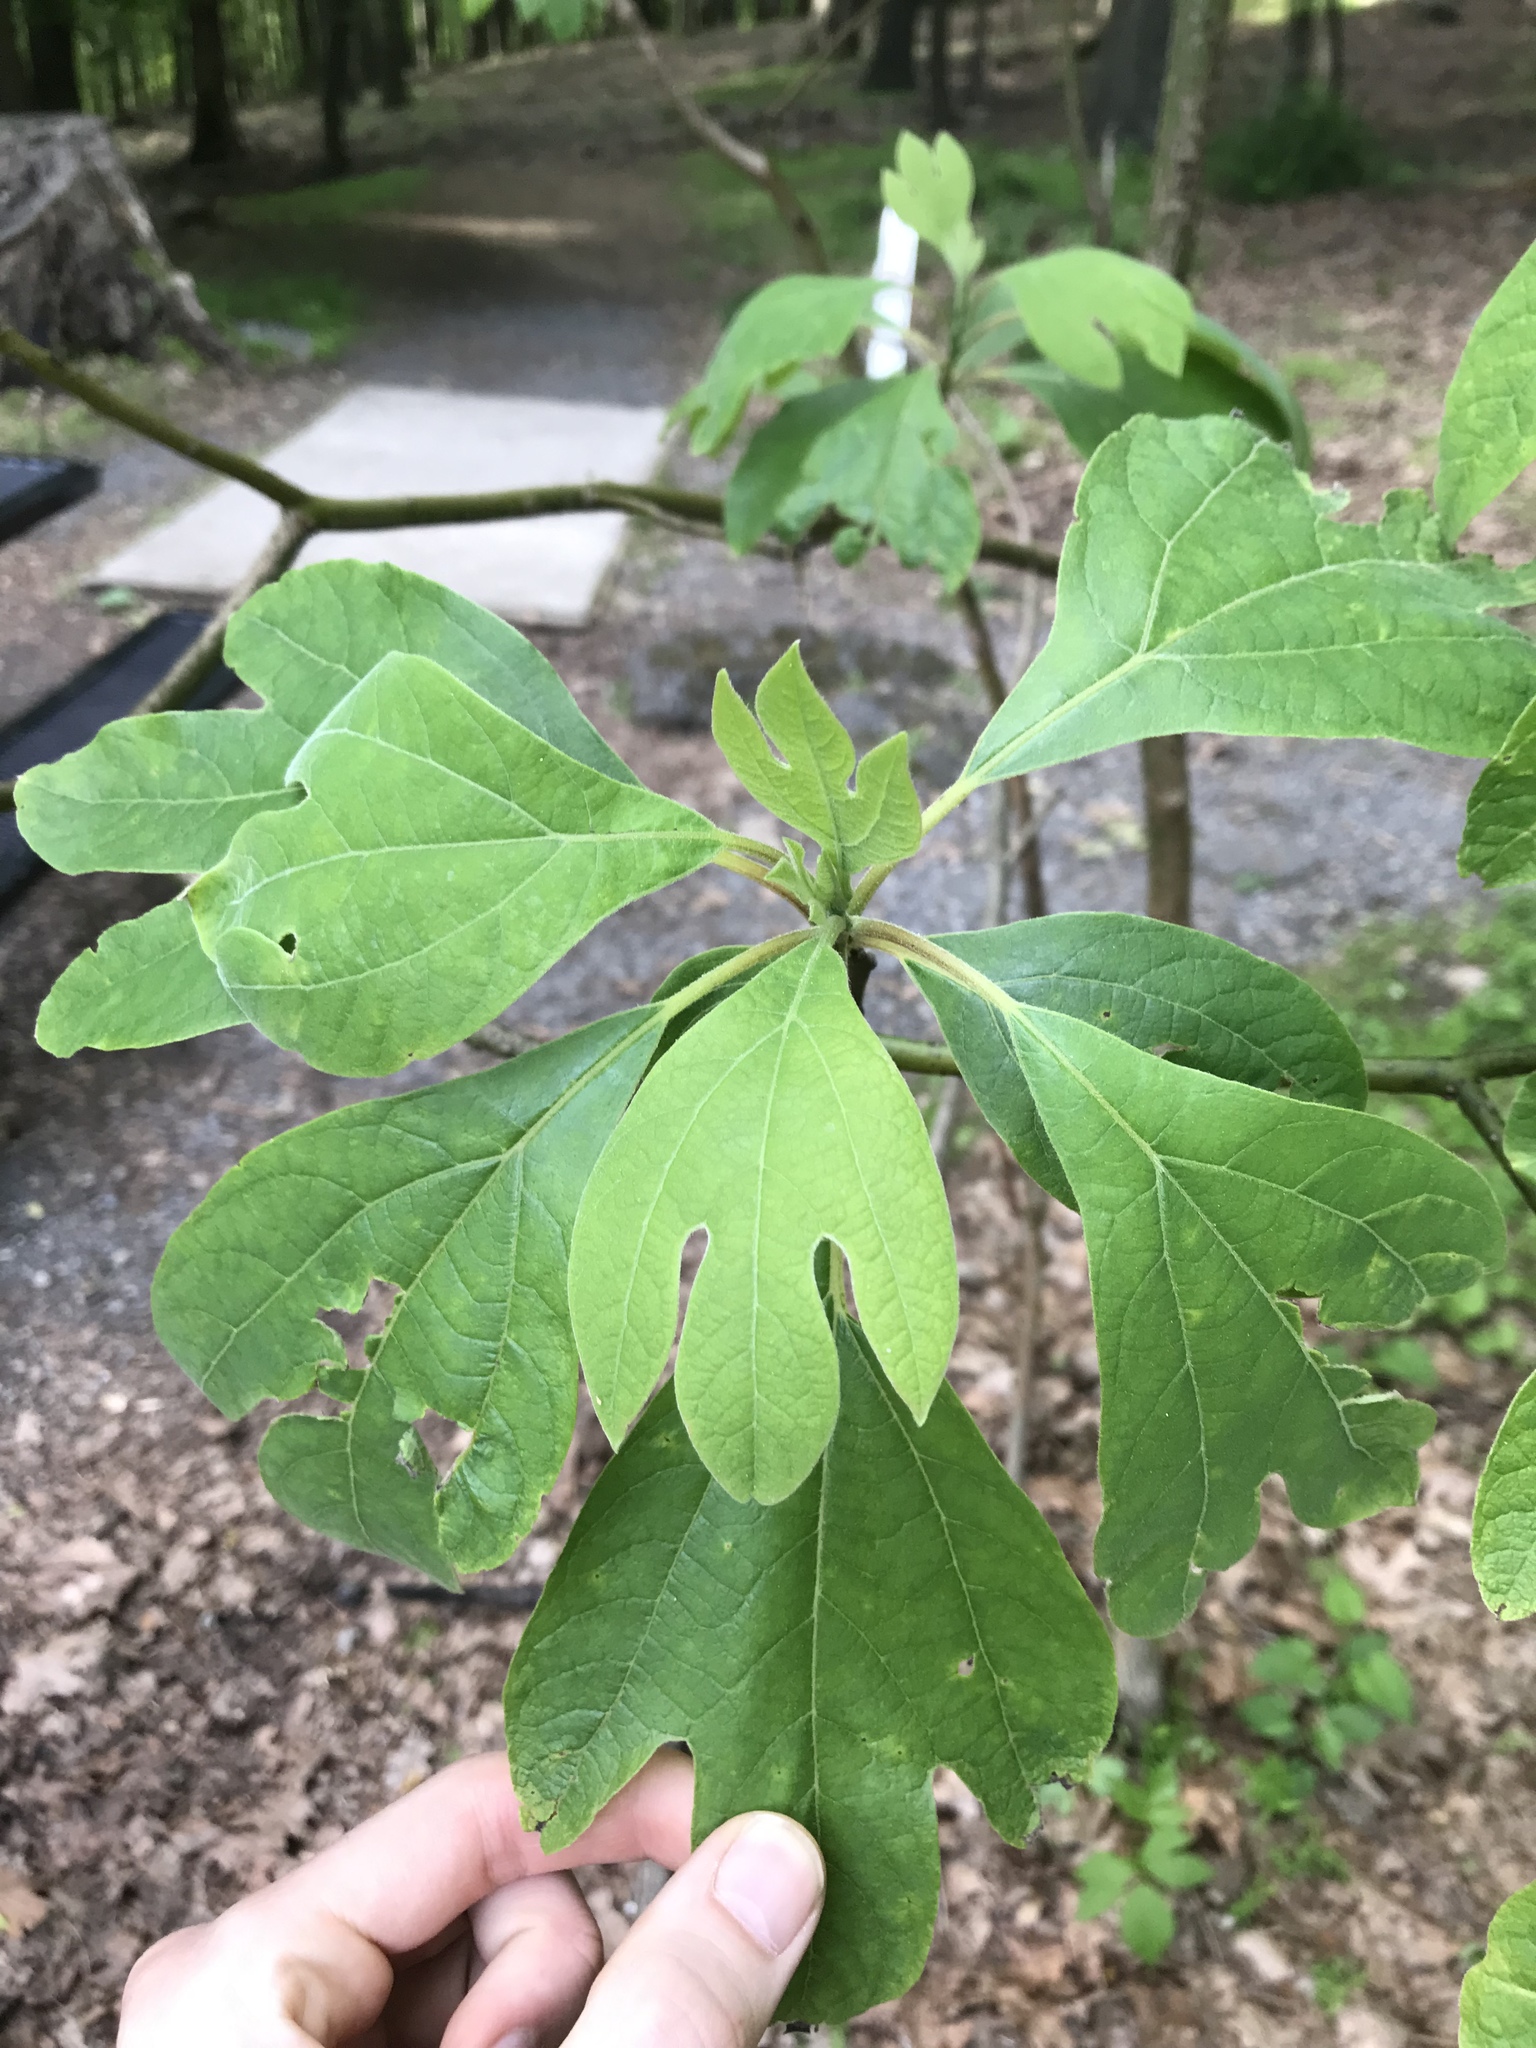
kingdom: Plantae
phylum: Tracheophyta
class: Magnoliopsida
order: Laurales
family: Lauraceae
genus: Sassafras
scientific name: Sassafras albidum
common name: Sassafras
